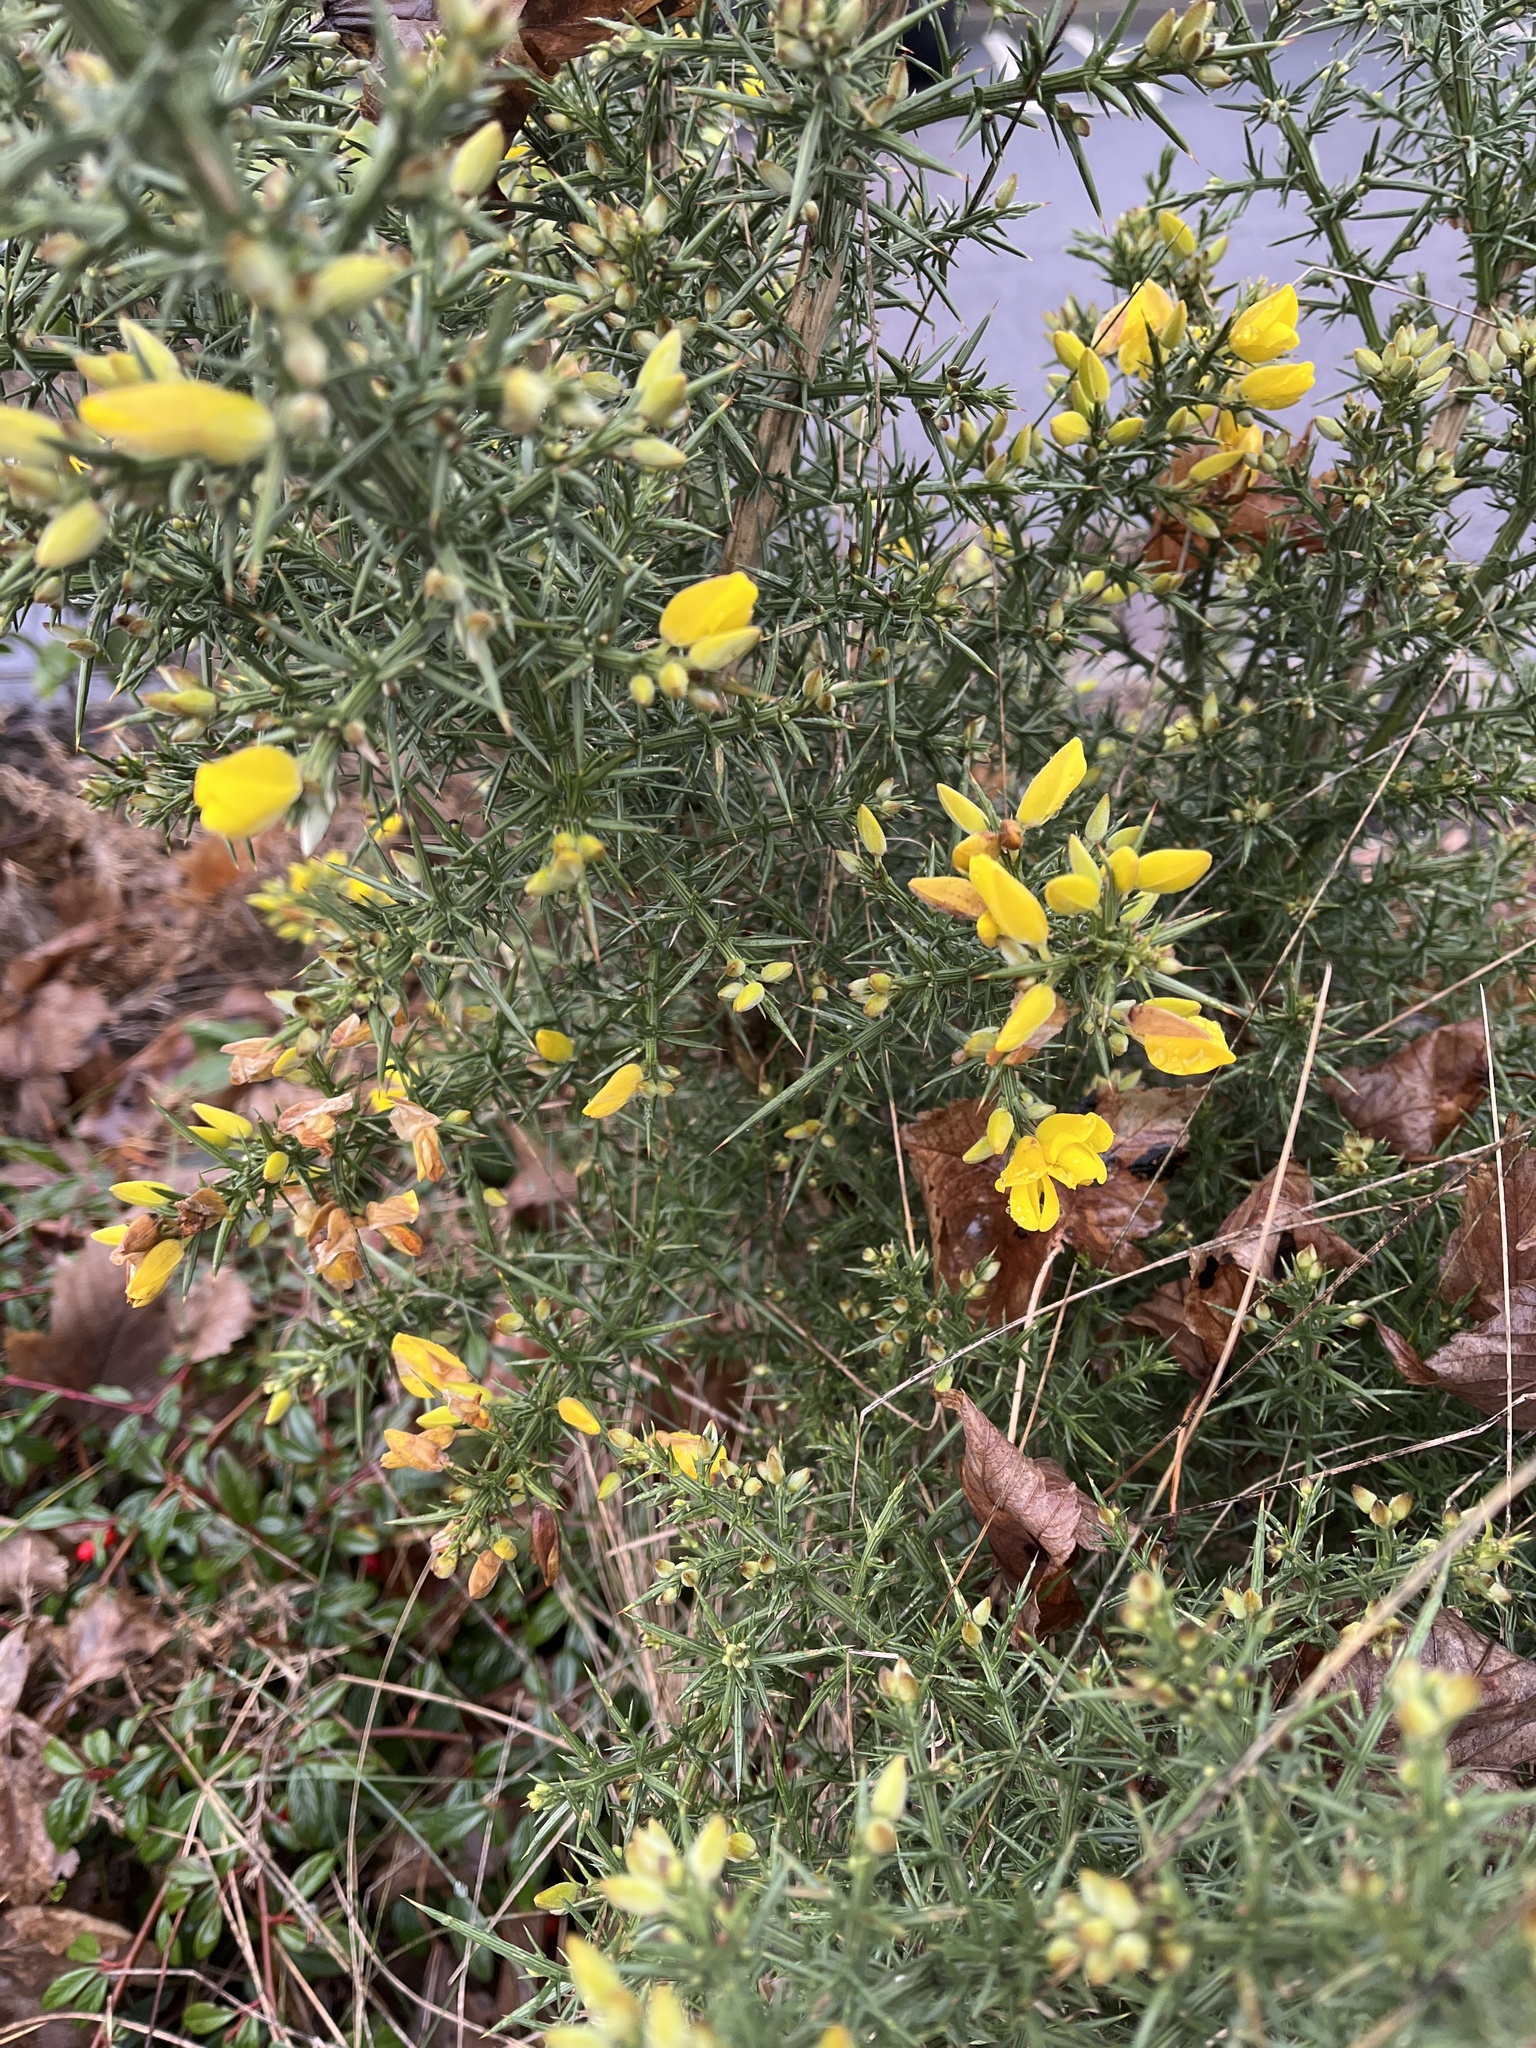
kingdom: Plantae
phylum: Tracheophyta
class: Magnoliopsida
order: Fabales
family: Fabaceae
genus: Ulex
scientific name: Ulex europaeus
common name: Common gorse
